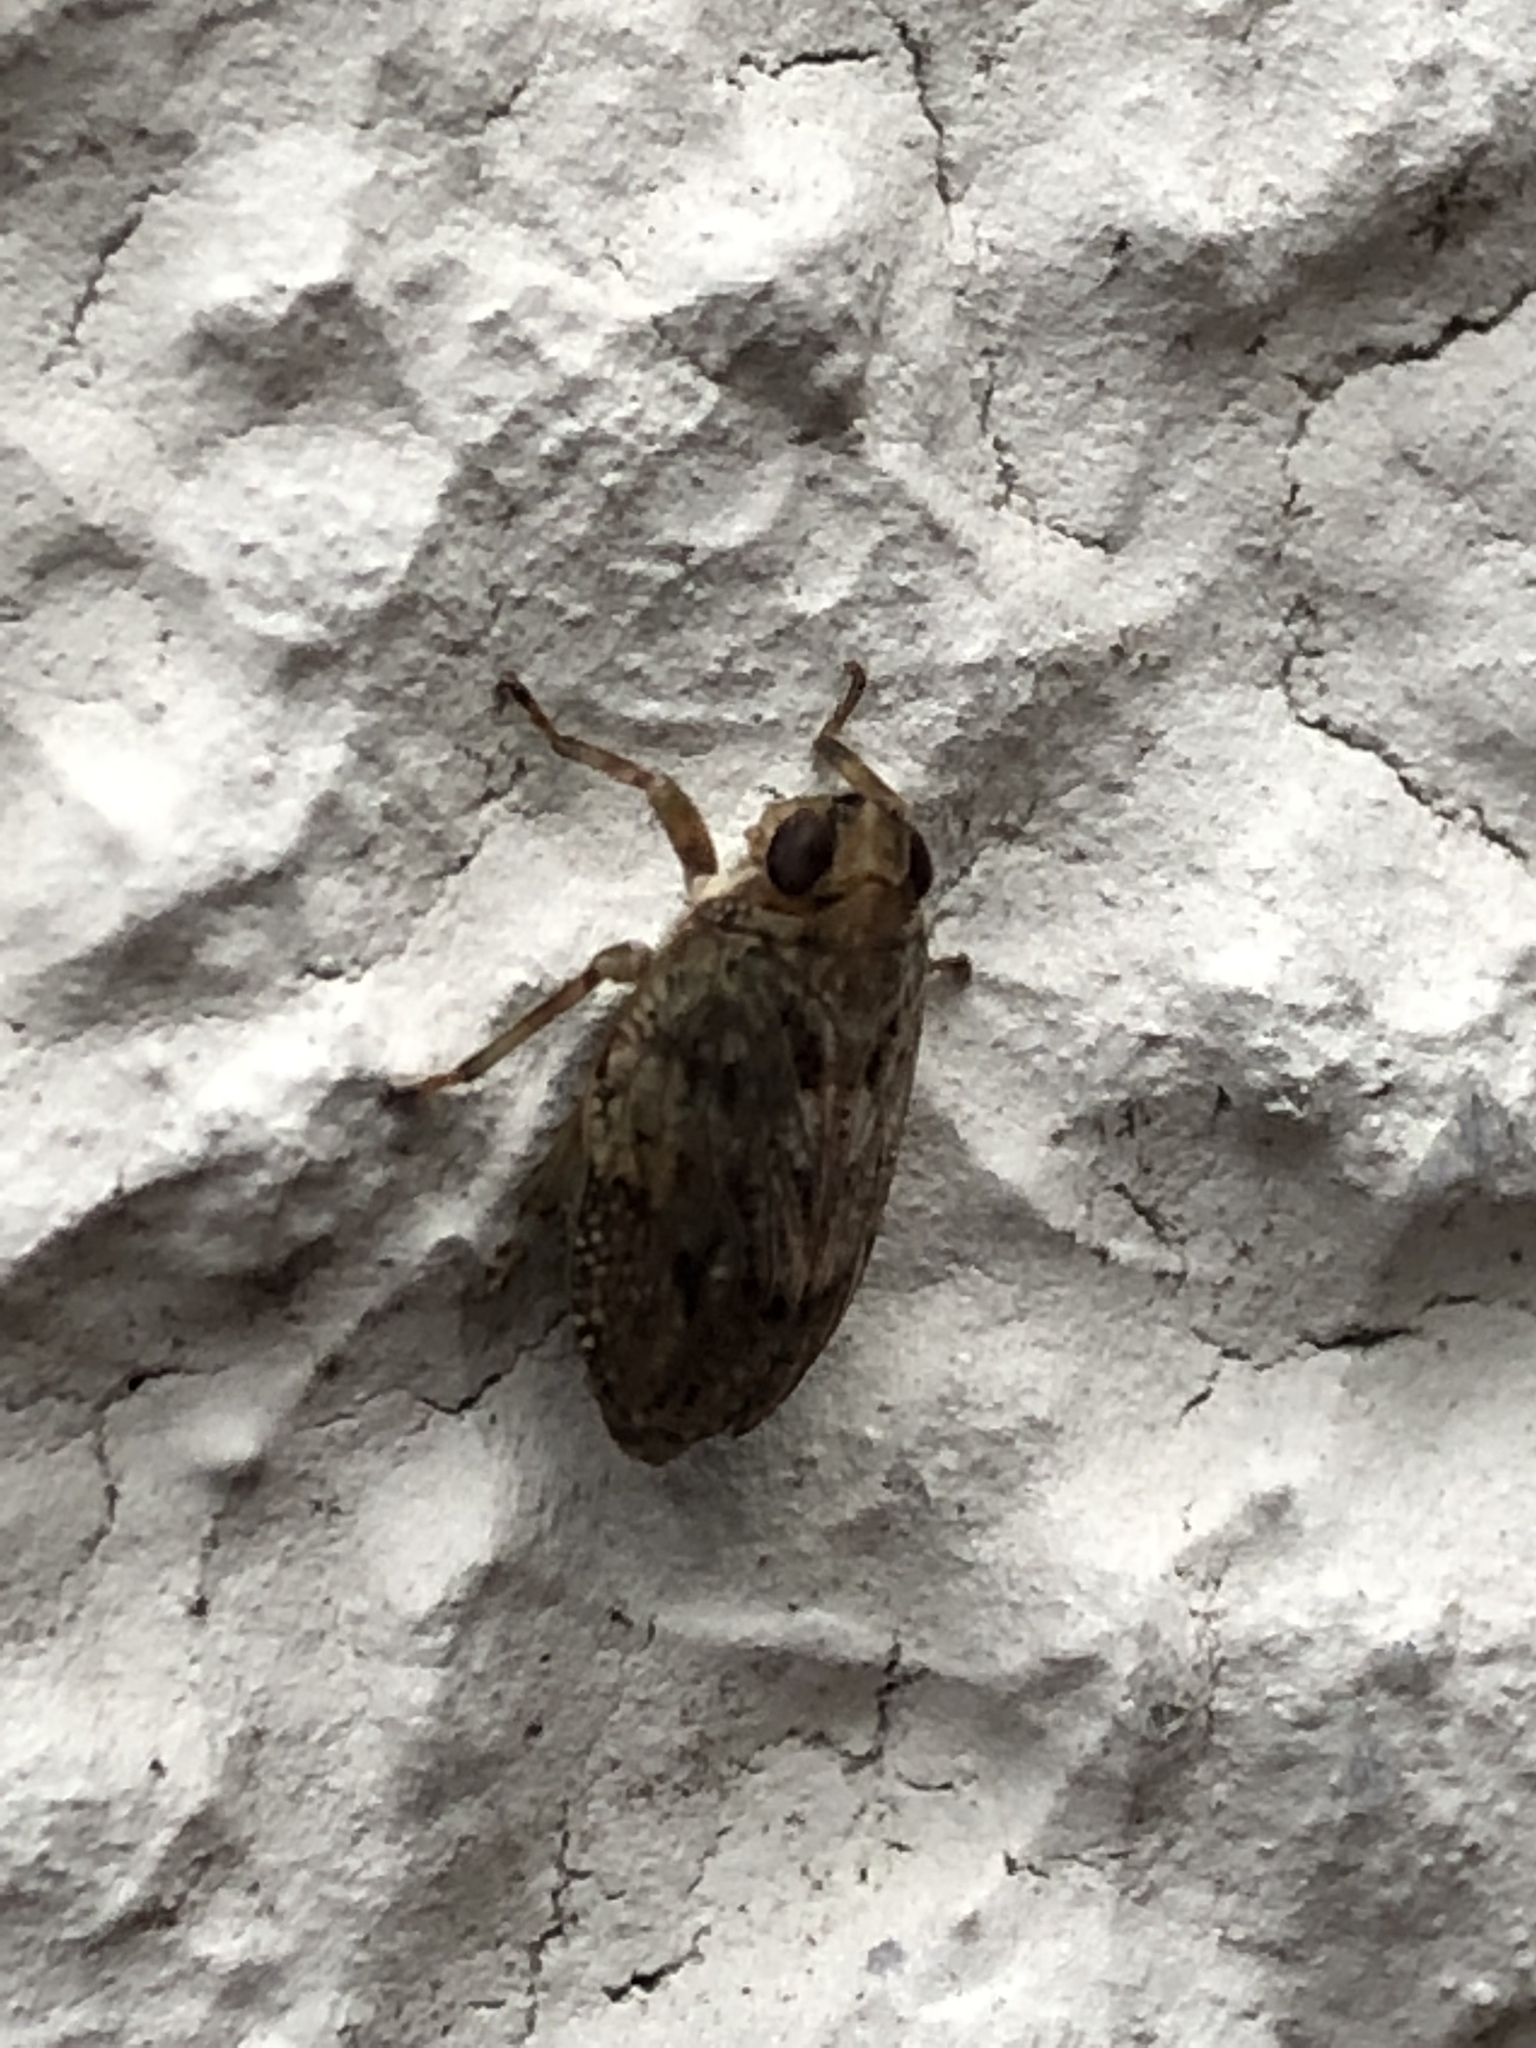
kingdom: Animalia
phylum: Arthropoda
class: Insecta
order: Hemiptera
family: Issidae
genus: Issus
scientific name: Issus coleoptratus
